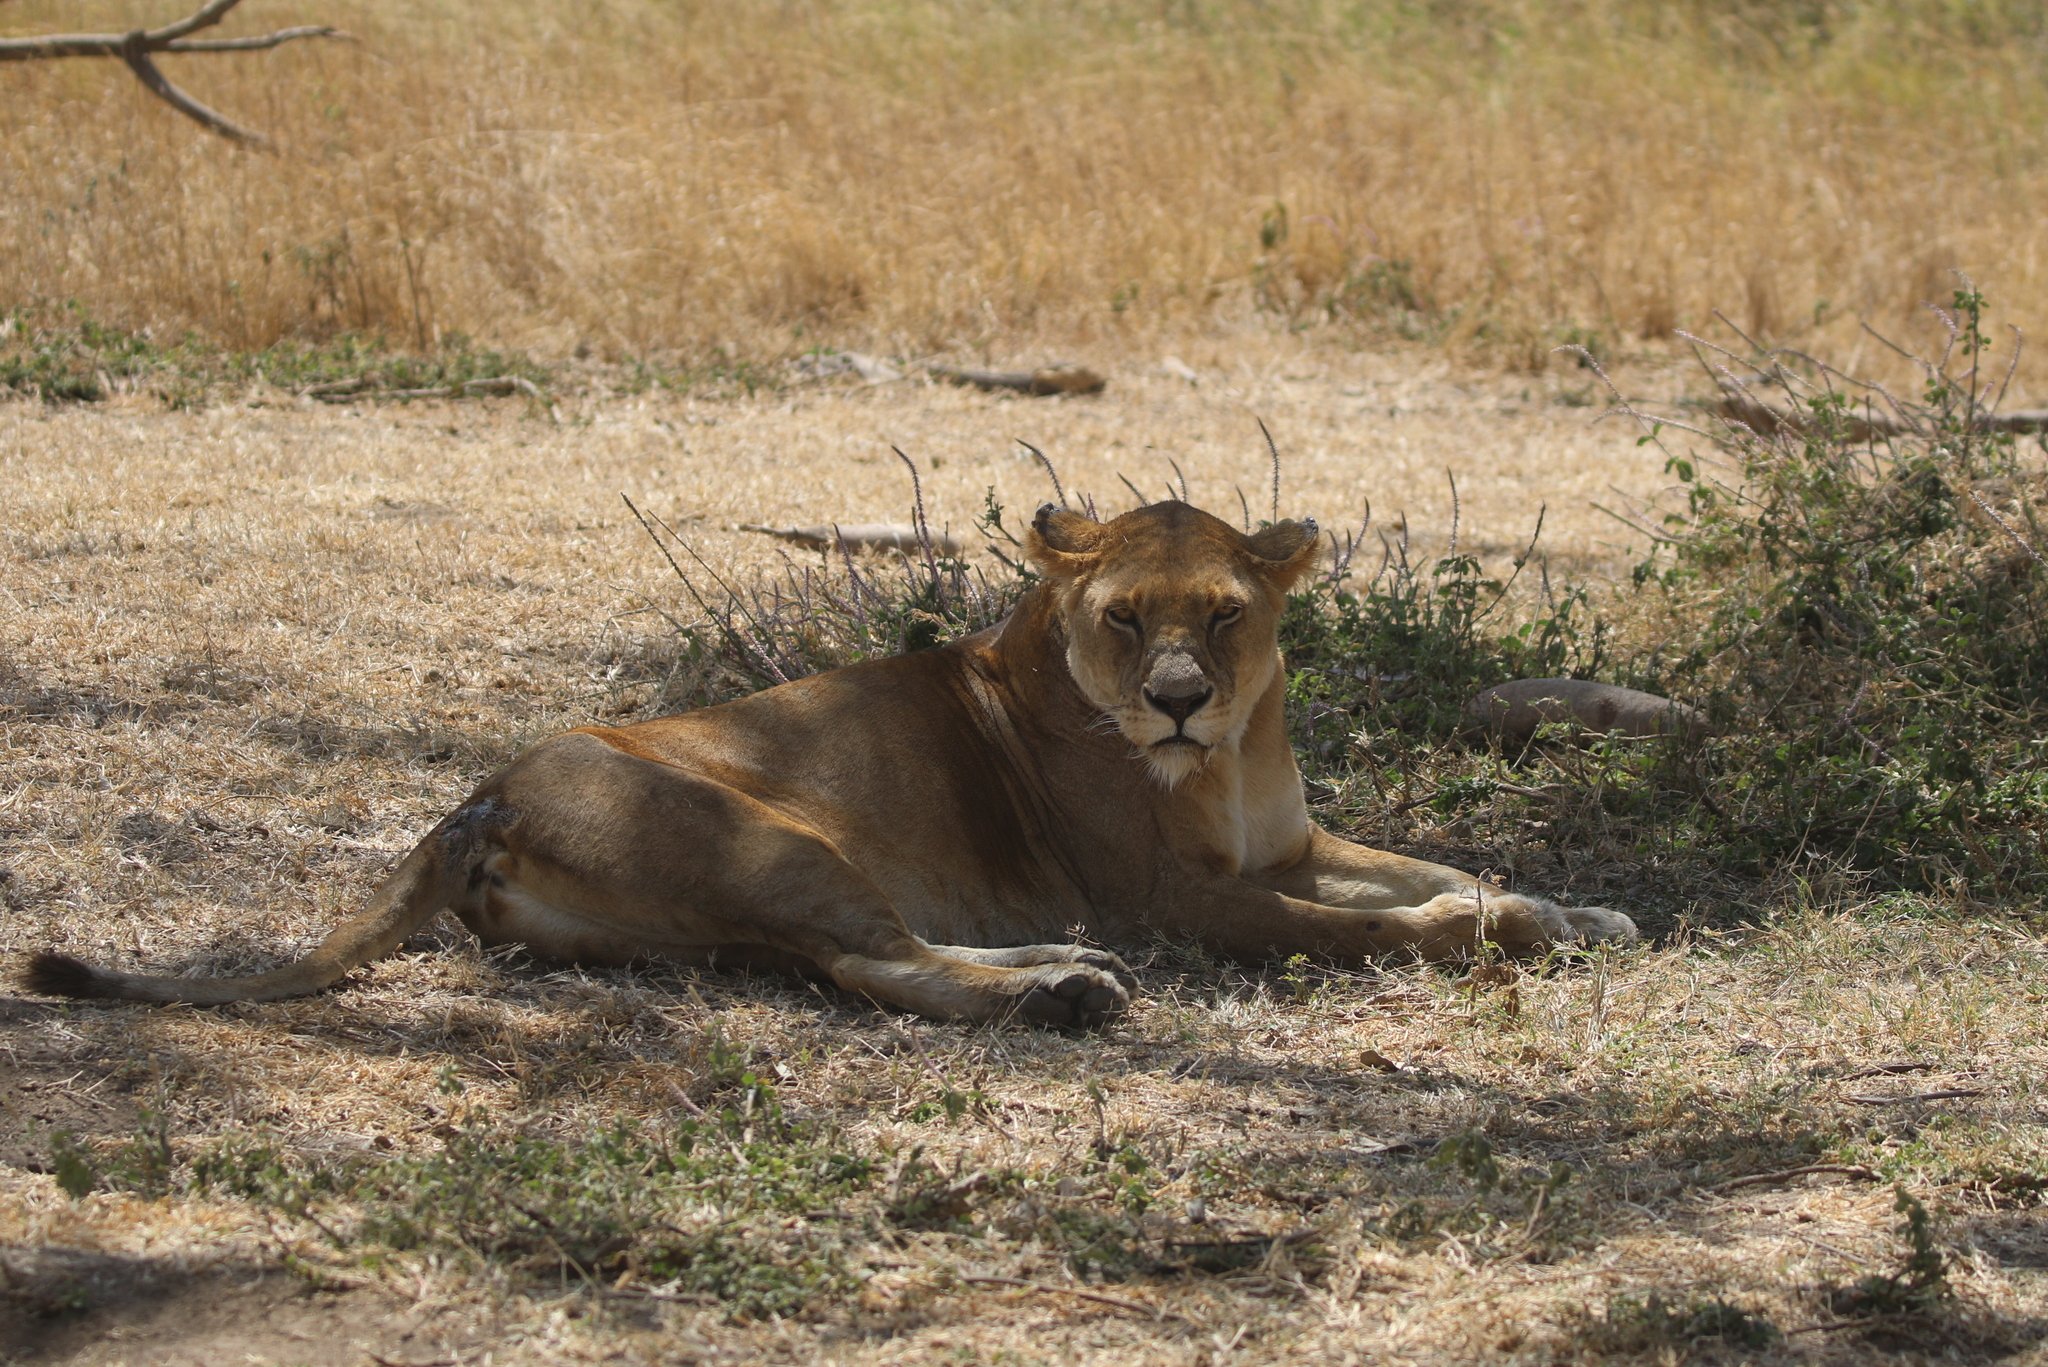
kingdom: Animalia
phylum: Chordata
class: Mammalia
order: Carnivora
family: Felidae
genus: Panthera
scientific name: Panthera leo
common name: Lion
